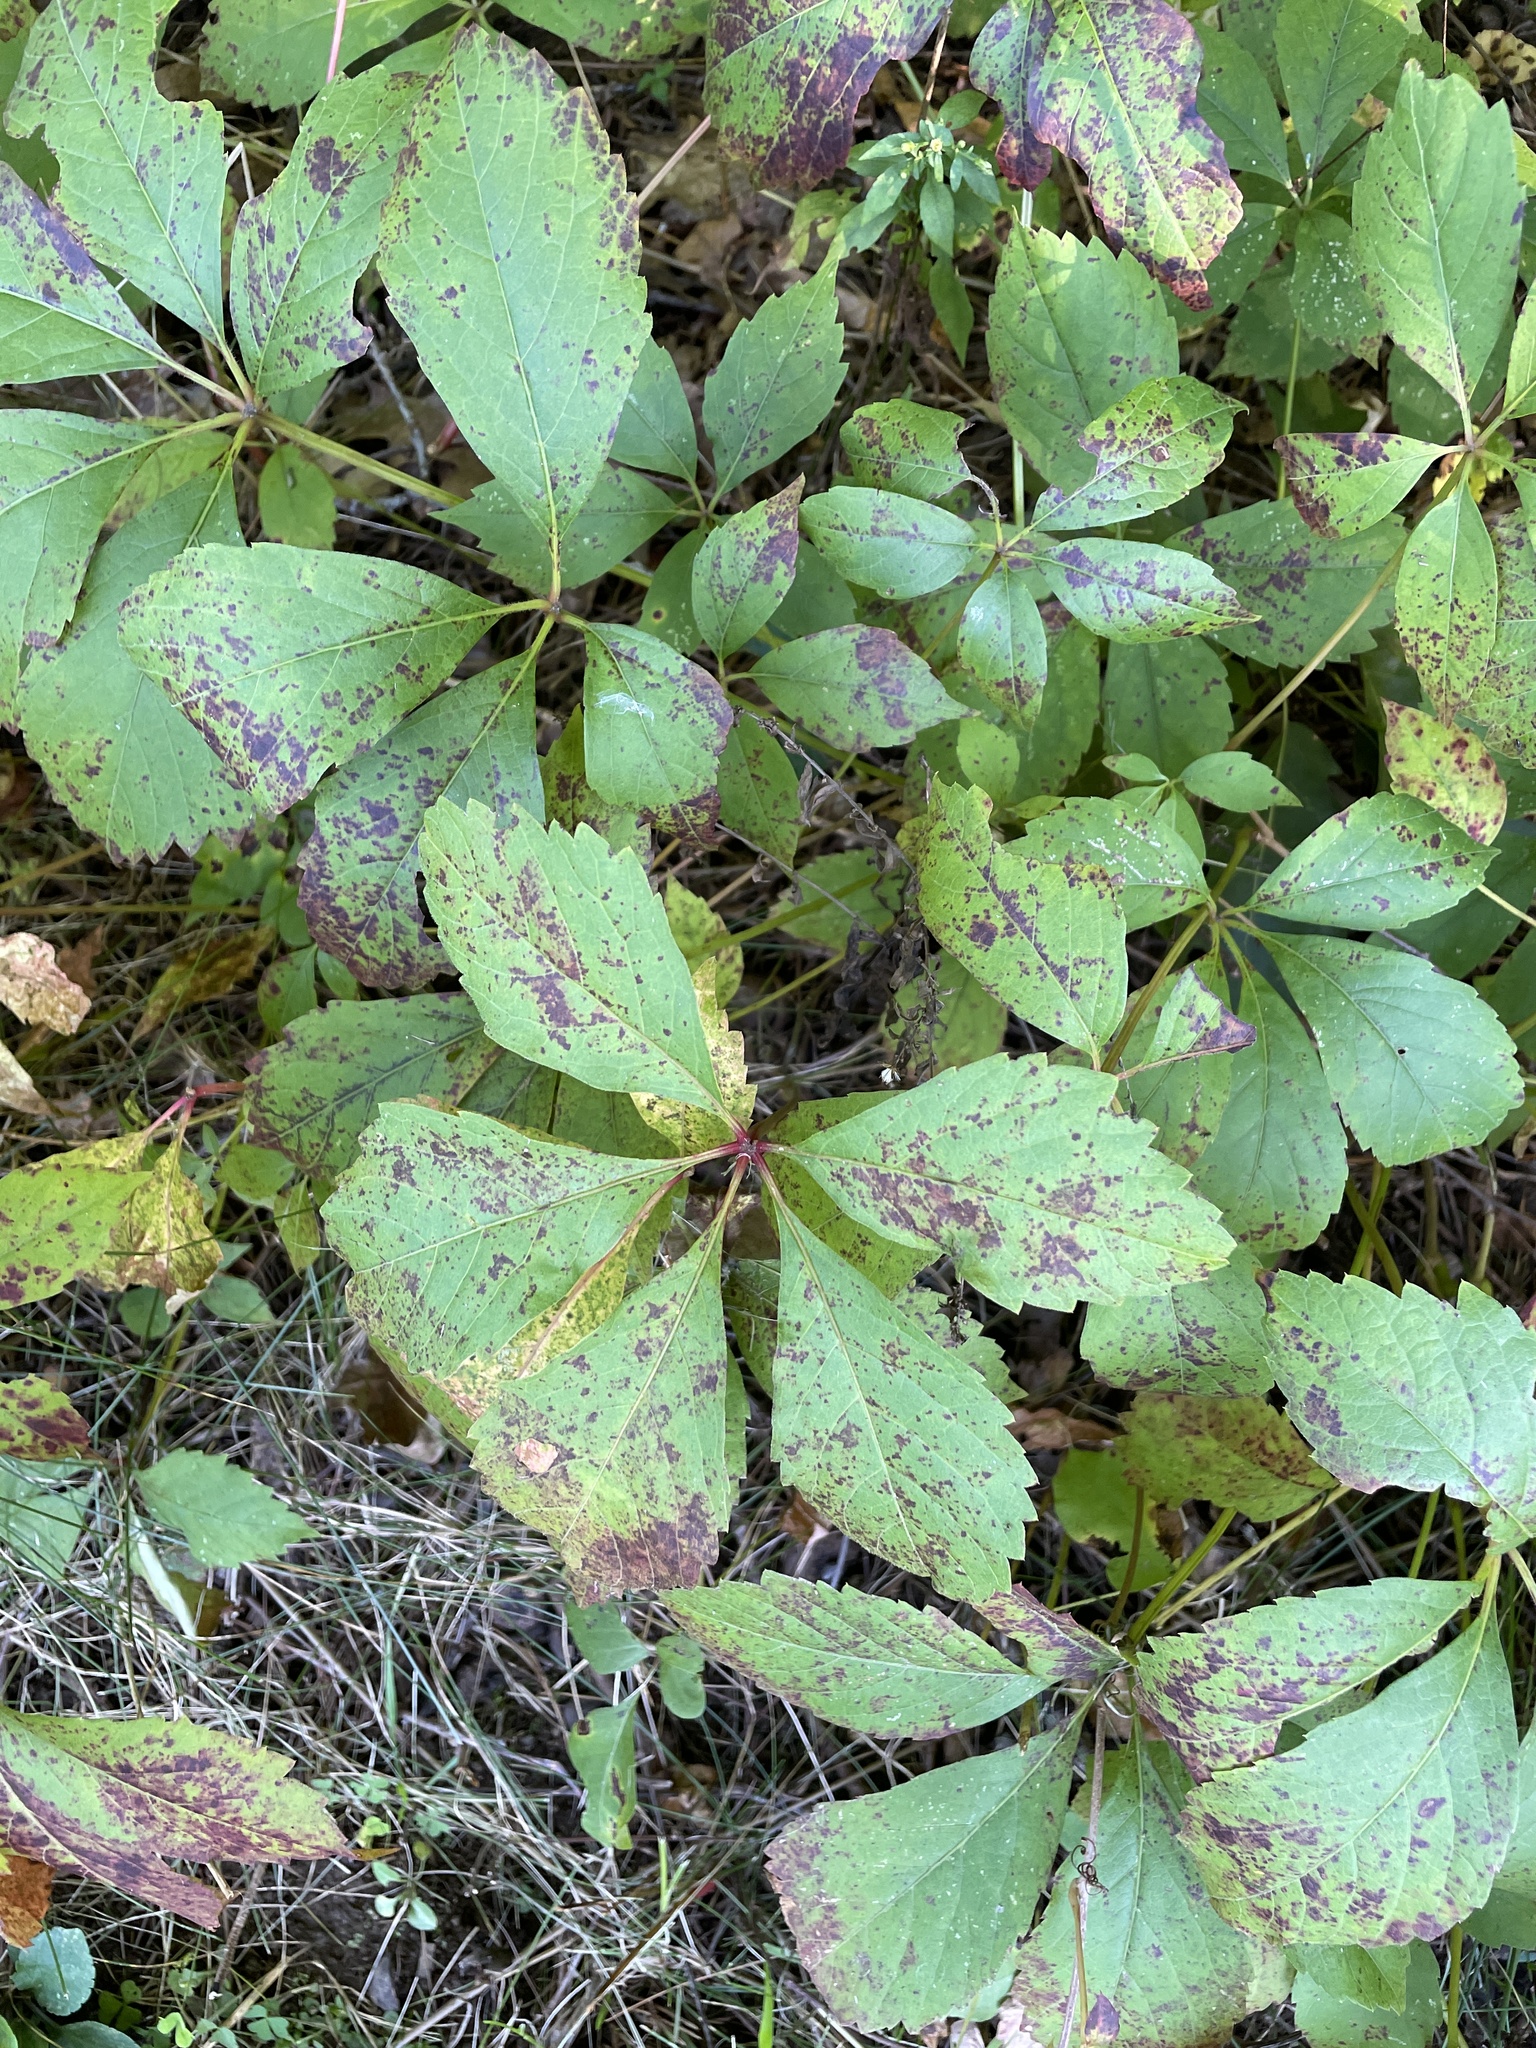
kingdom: Plantae
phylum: Tracheophyta
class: Magnoliopsida
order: Vitales
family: Vitaceae
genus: Parthenocissus
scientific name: Parthenocissus quinquefolia
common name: Virginia-creeper
